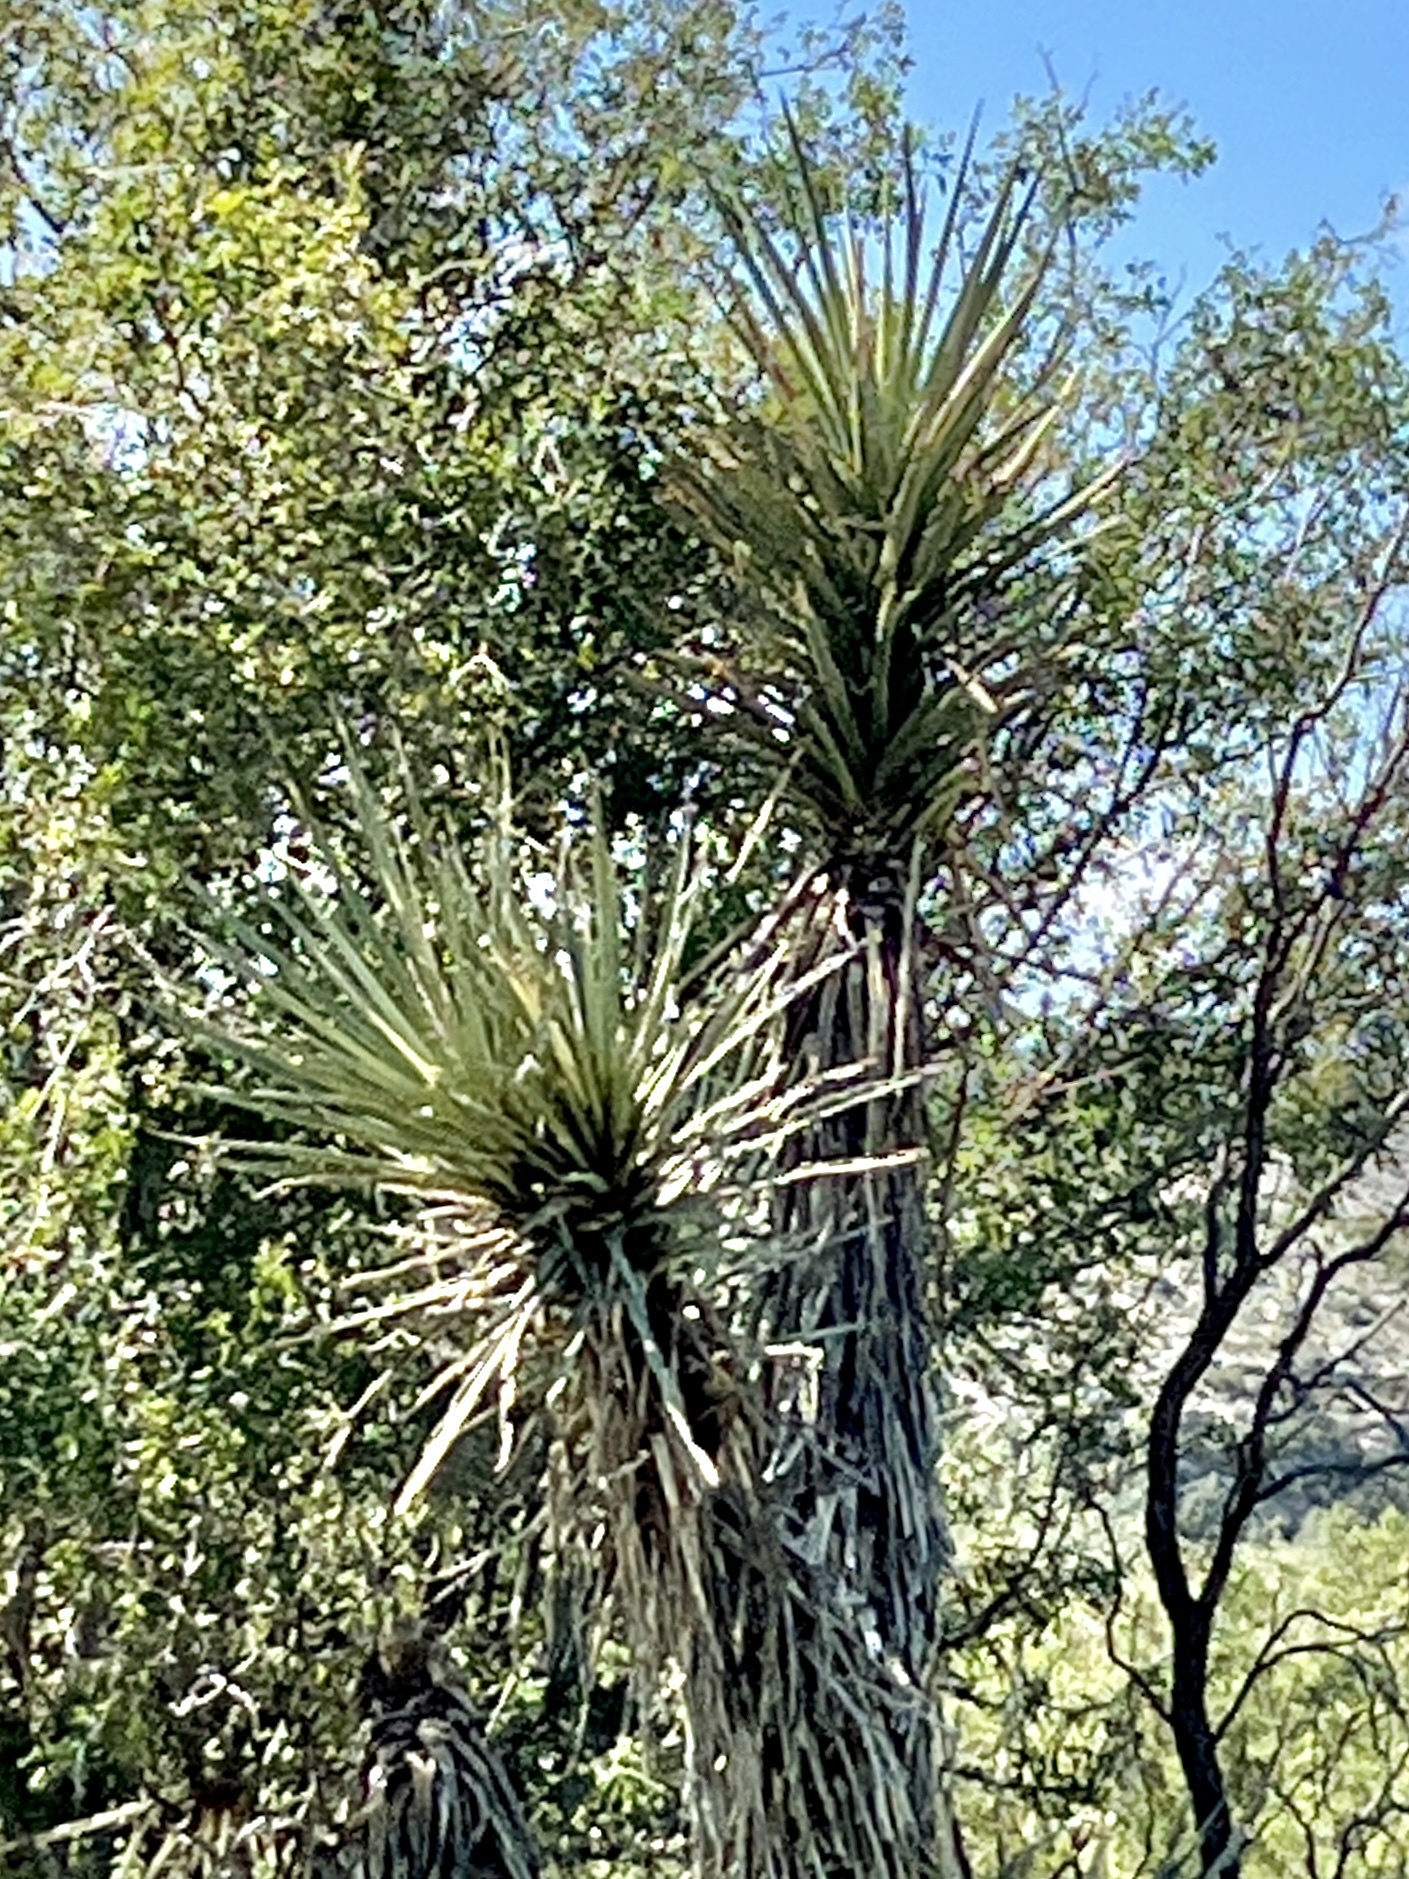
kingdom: Plantae
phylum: Tracheophyta
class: Liliopsida
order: Asparagales
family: Asparagaceae
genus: Yucca
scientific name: Yucca treculiana
